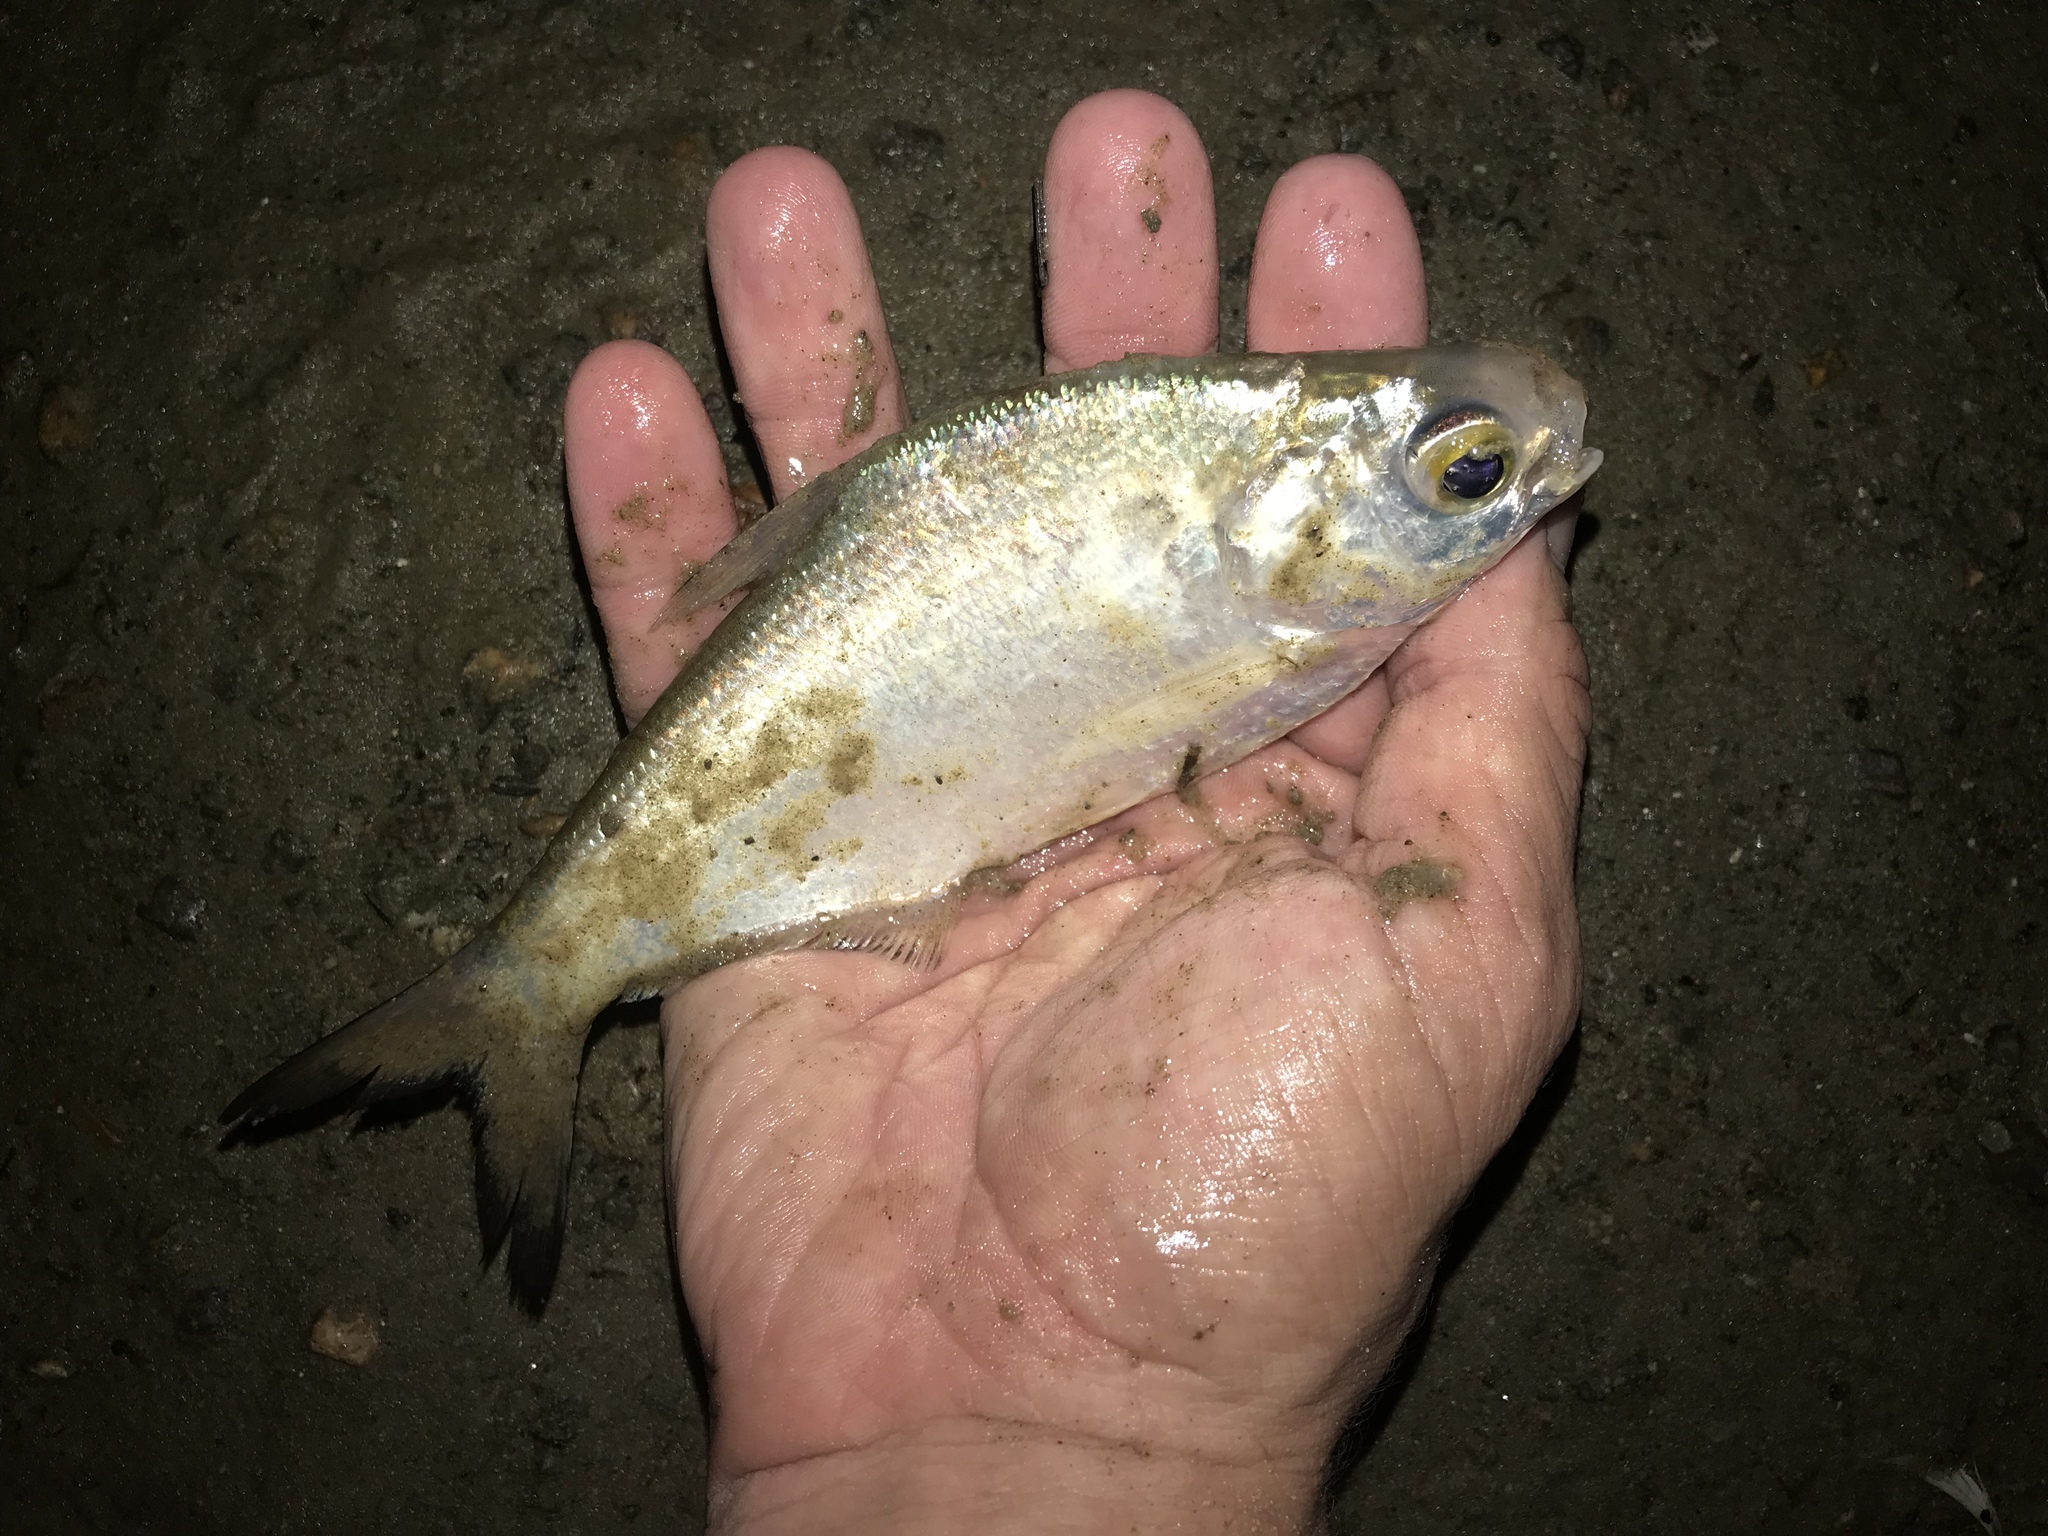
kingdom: Animalia
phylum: Chordata
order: Clupeiformes
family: Clupeidae
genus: Dorosoma
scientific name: Dorosoma cepedianum
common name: Gizzard shad
